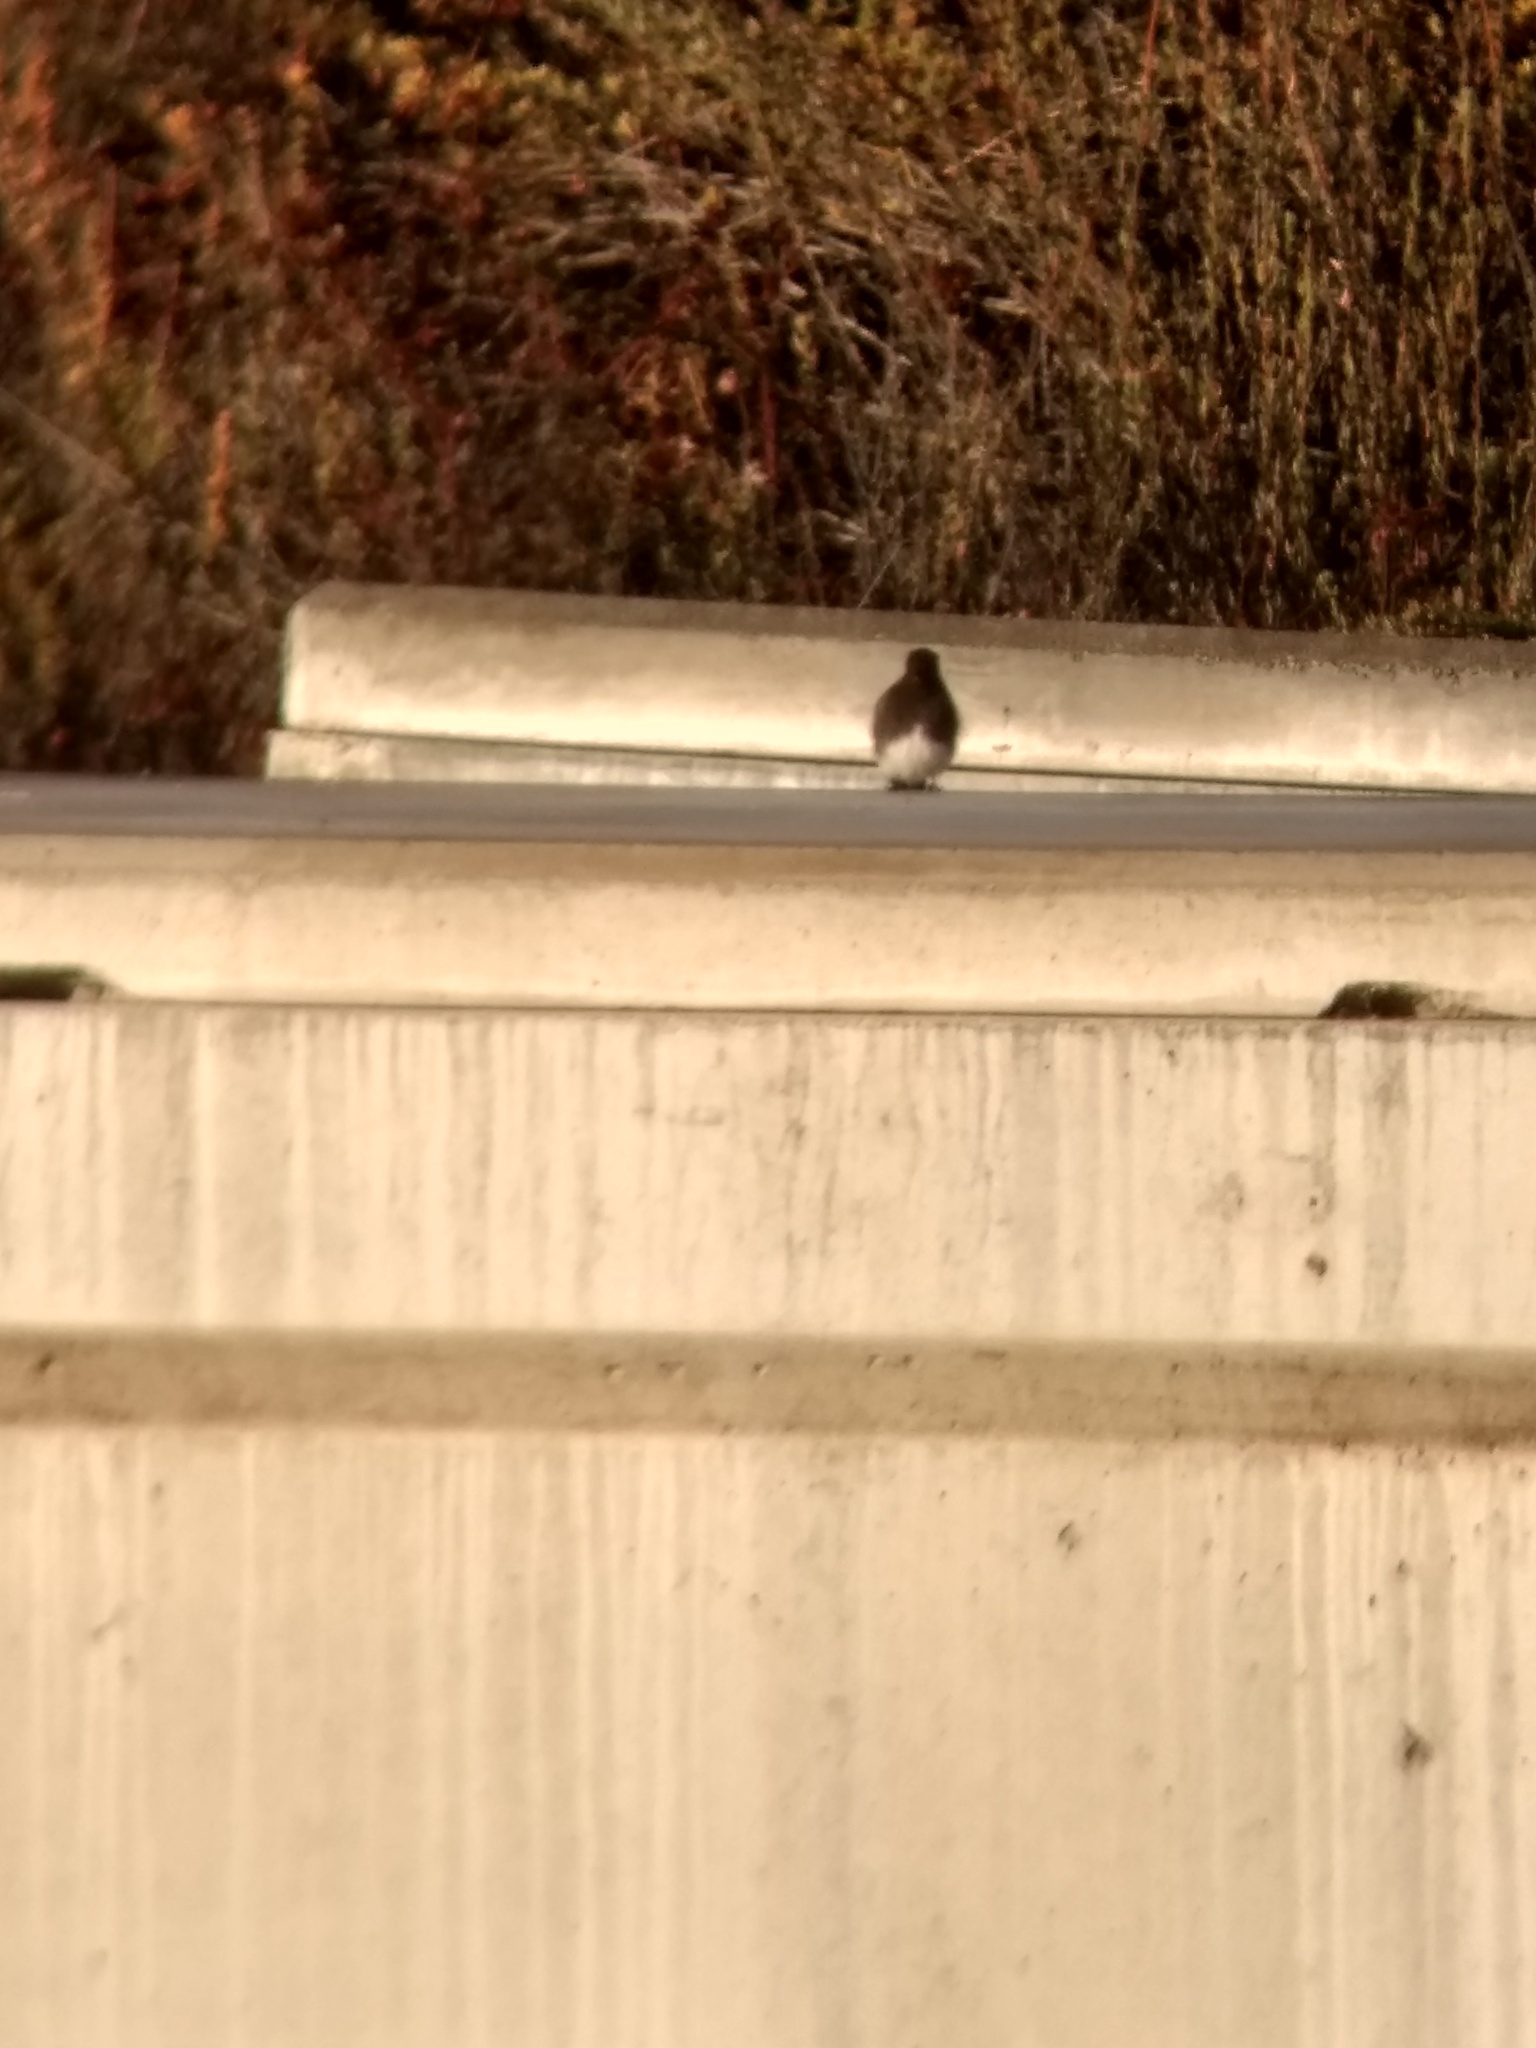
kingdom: Animalia
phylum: Chordata
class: Aves
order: Passeriformes
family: Tyrannidae
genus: Sayornis
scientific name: Sayornis nigricans
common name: Black phoebe
